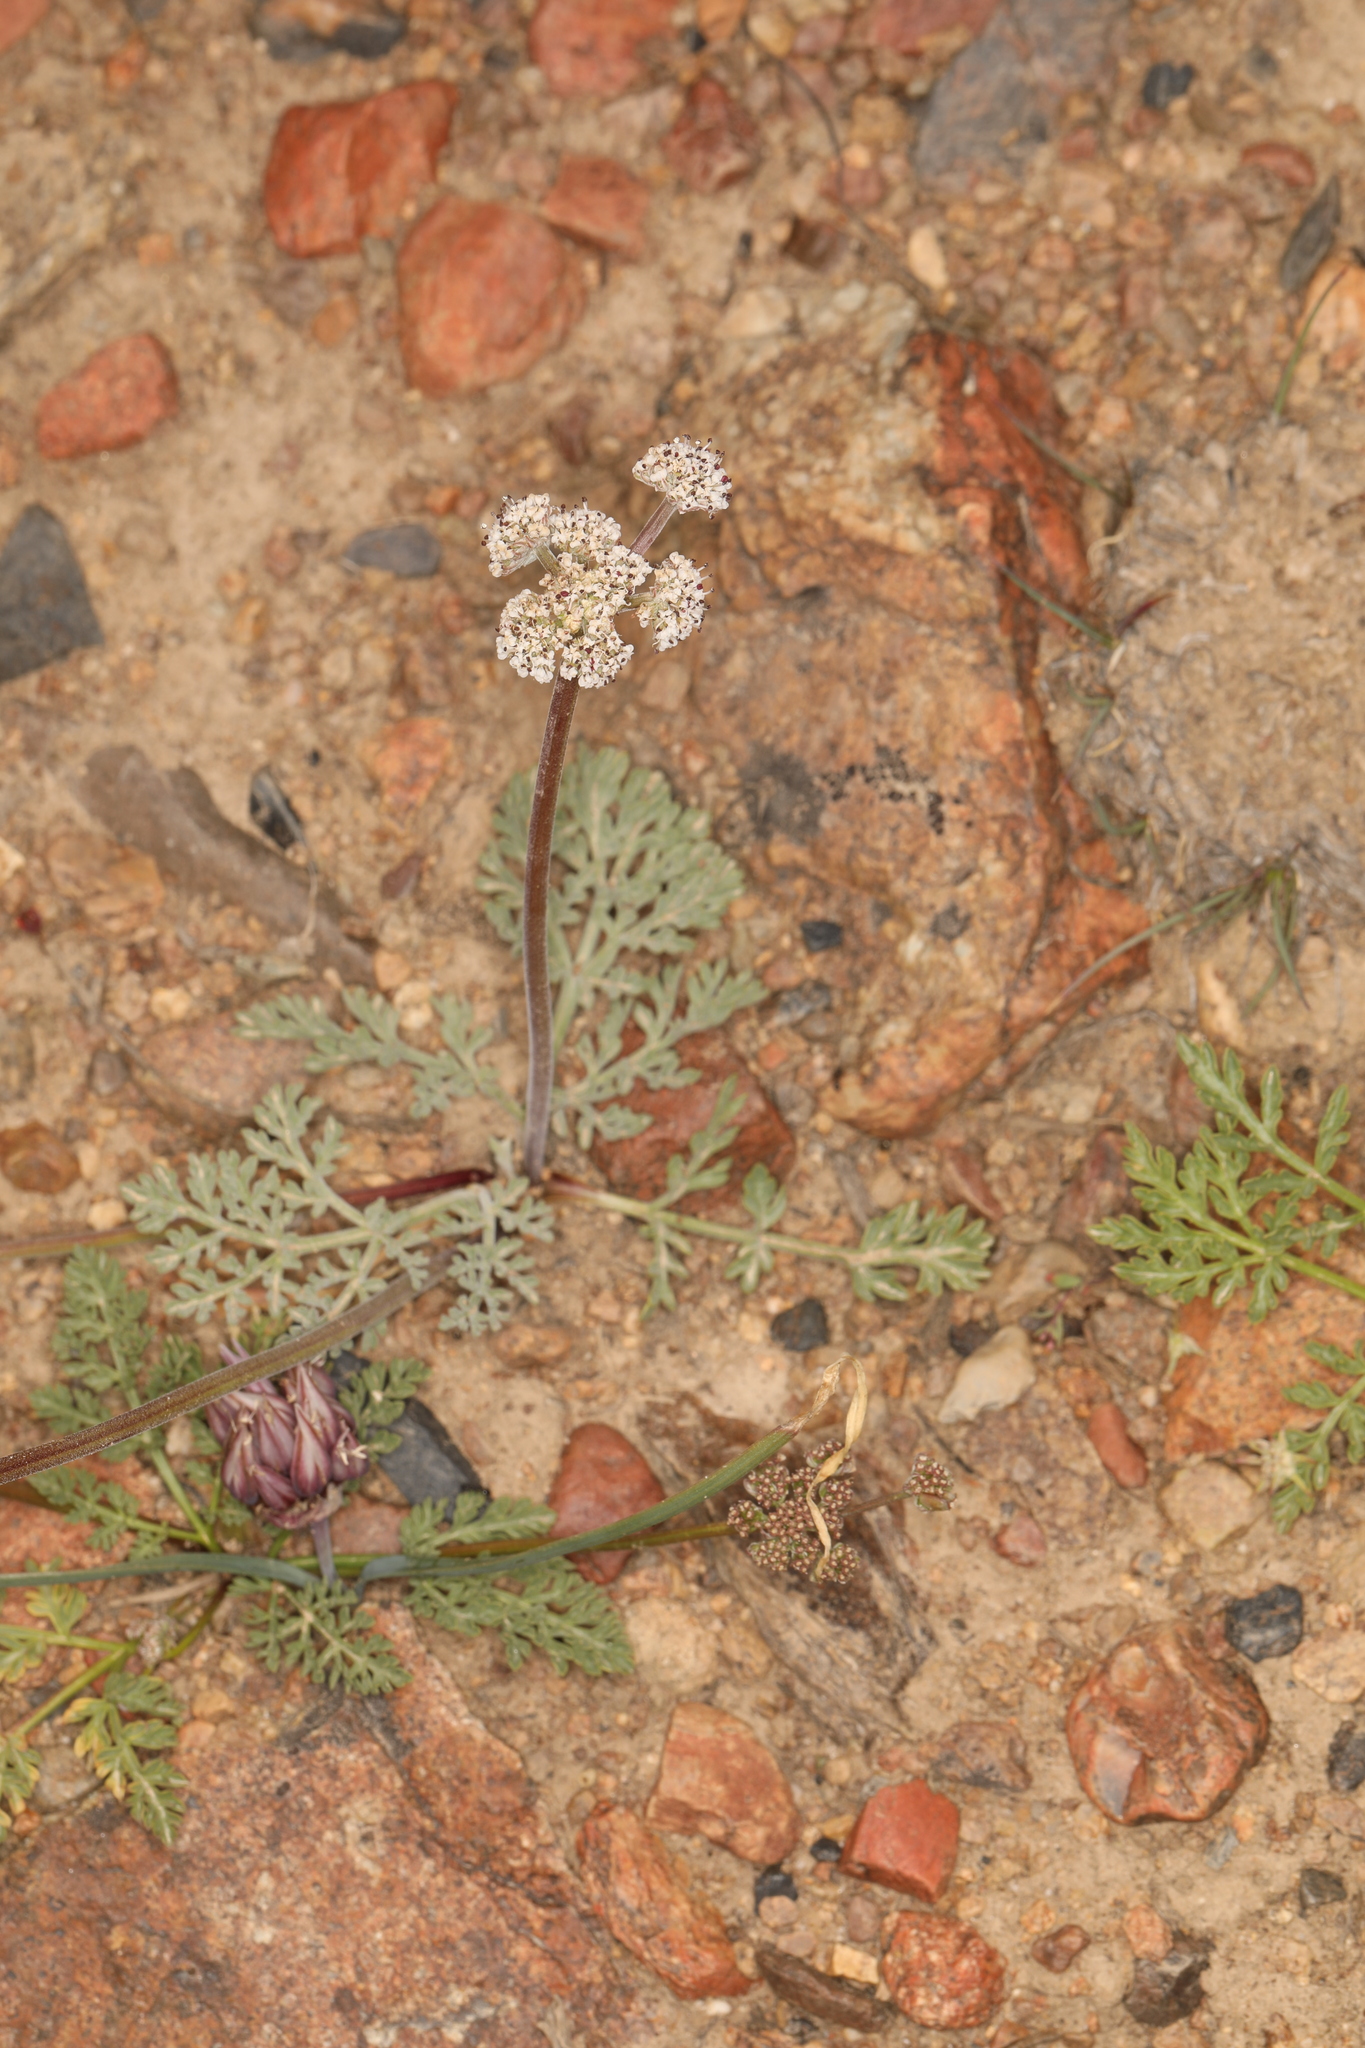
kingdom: Plantae
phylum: Tracheophyta
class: Magnoliopsida
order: Apiales
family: Apiaceae
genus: Lomatium
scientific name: Lomatium nevadense
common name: Nevada lomatium
